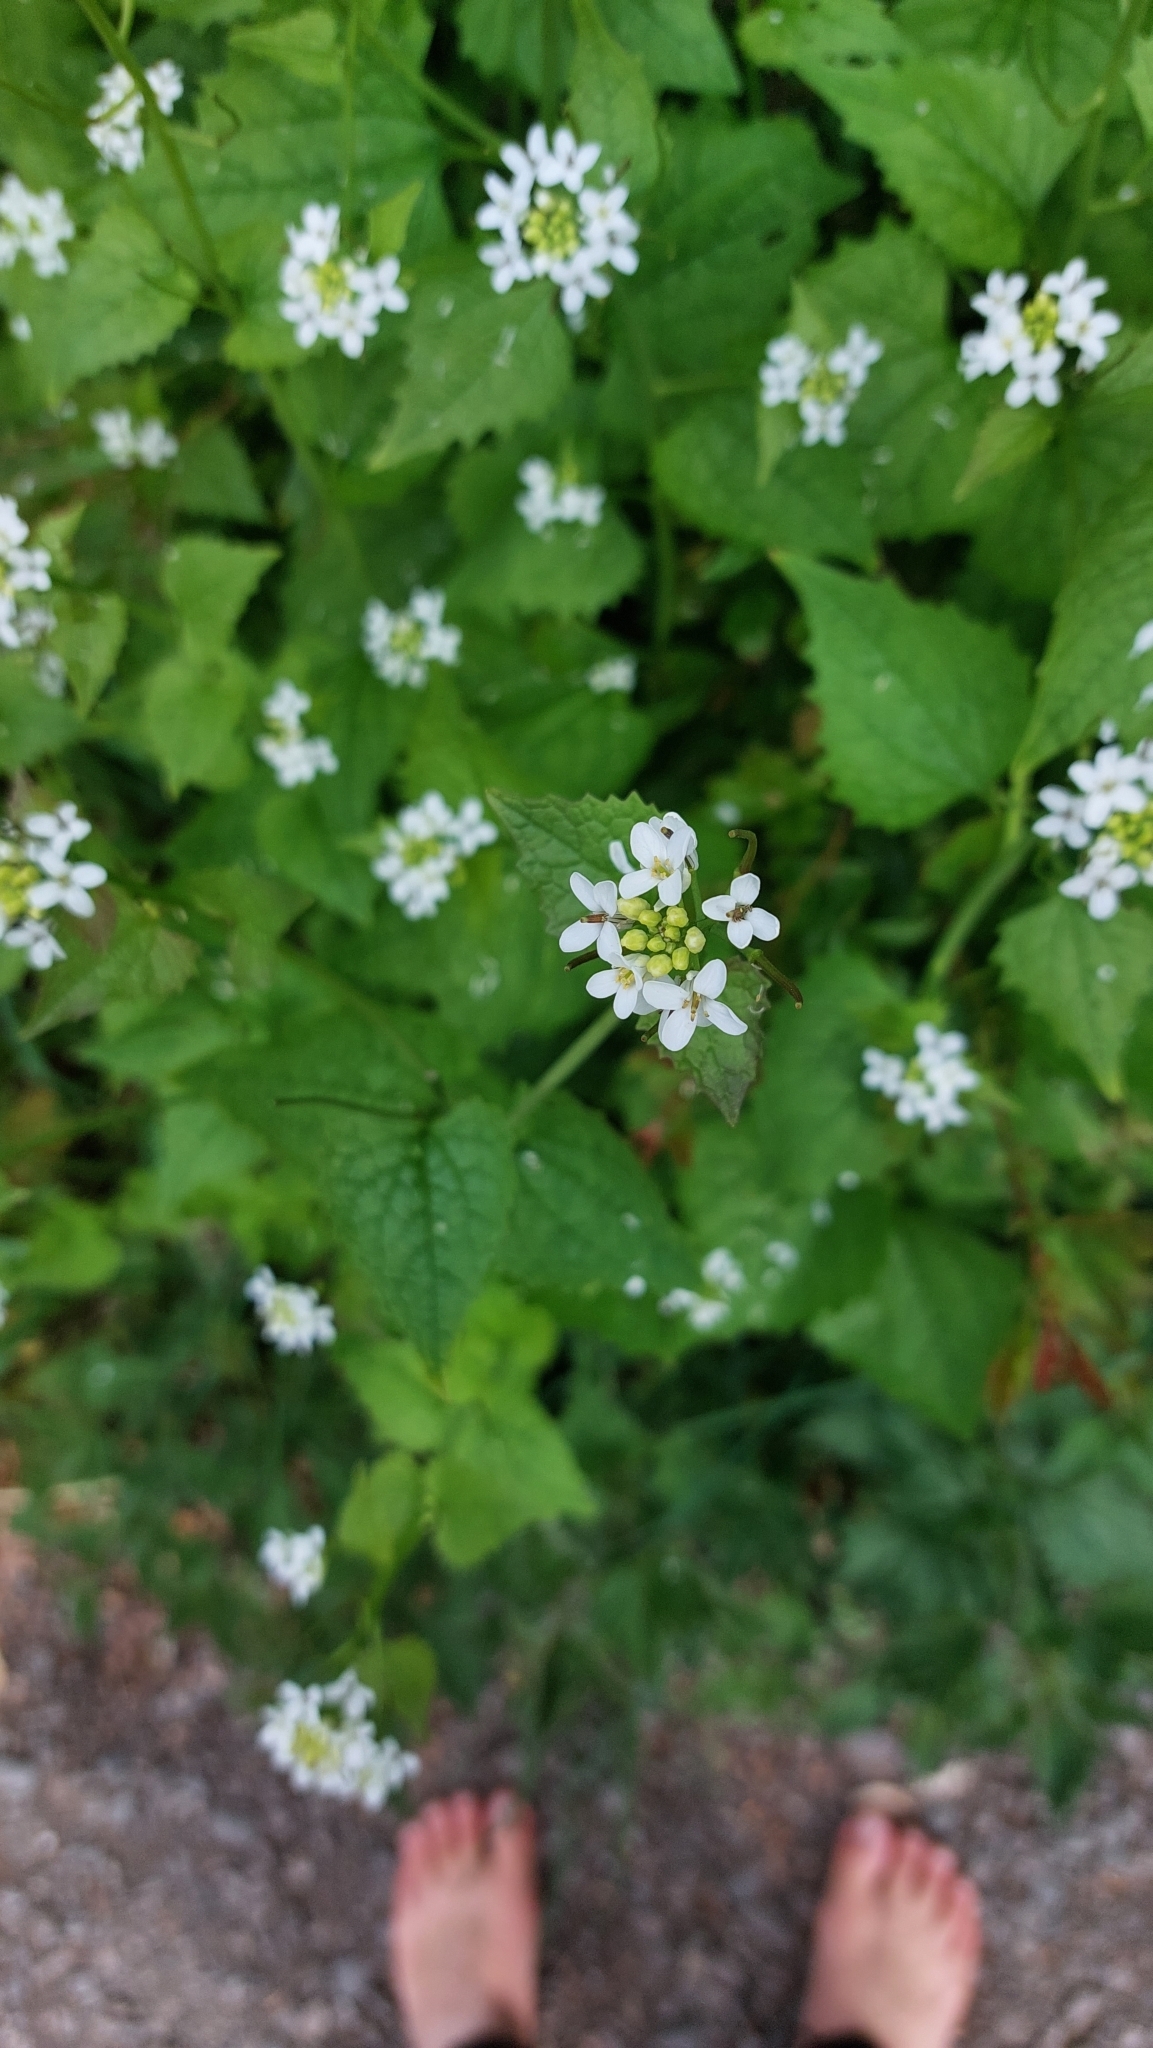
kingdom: Plantae
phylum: Tracheophyta
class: Magnoliopsida
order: Brassicales
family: Brassicaceae
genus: Alliaria
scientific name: Alliaria petiolata
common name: Garlic mustard
